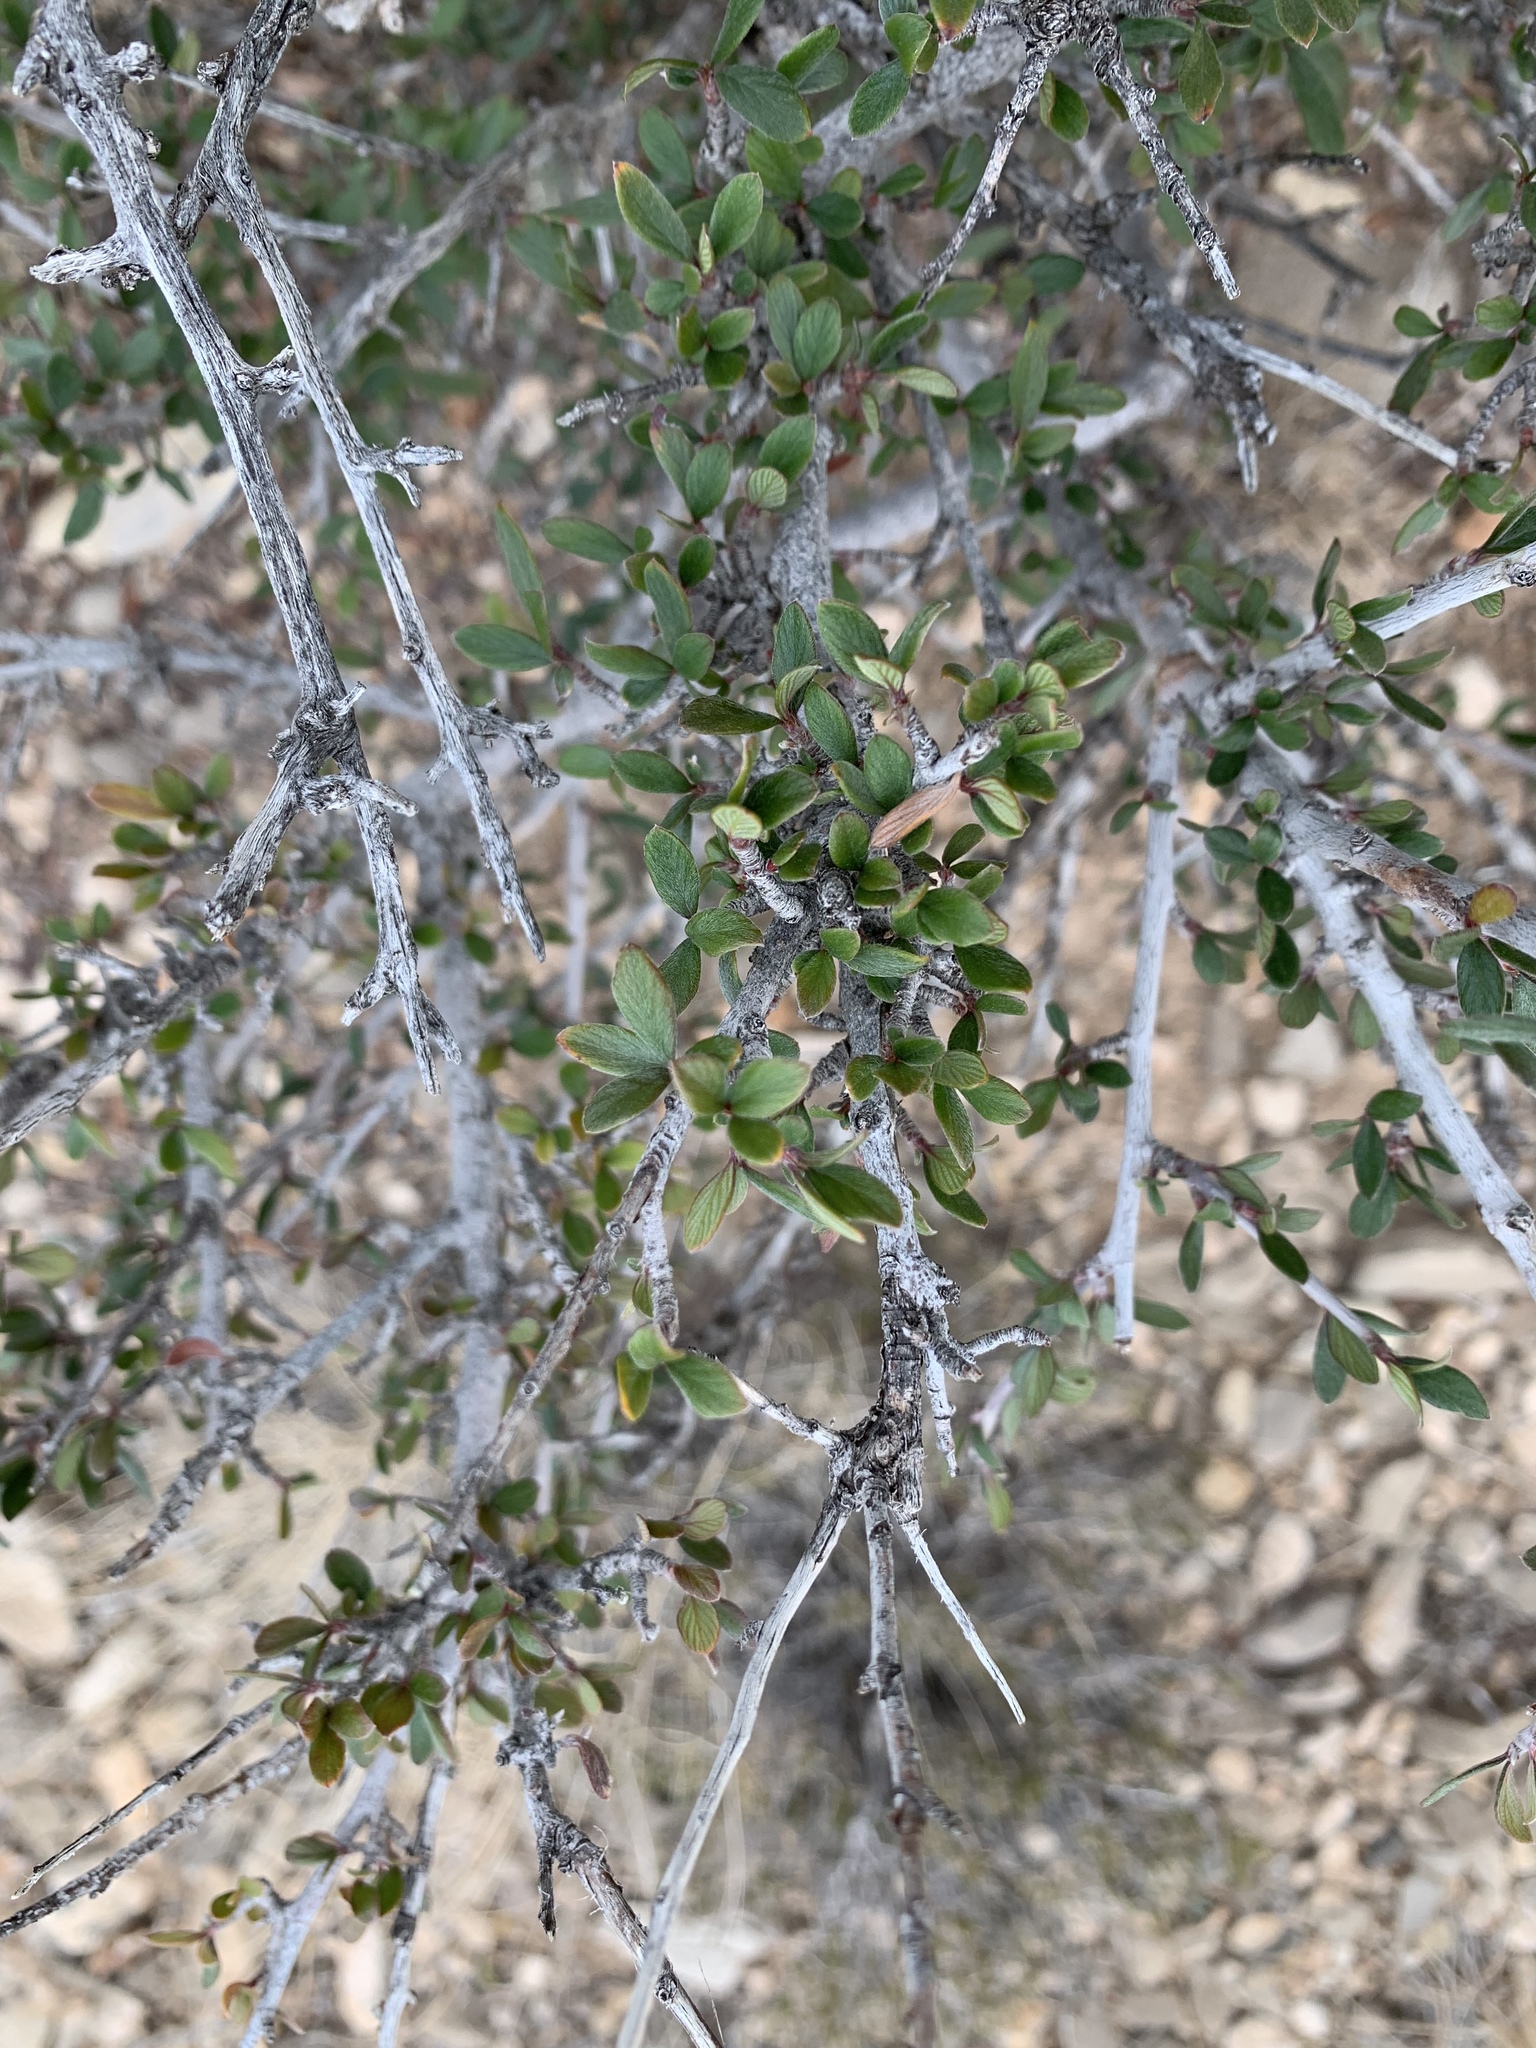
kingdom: Plantae
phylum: Tracheophyta
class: Magnoliopsida
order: Rosales
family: Rosaceae
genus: Cercocarpus
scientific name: Cercocarpus breviflorus
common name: Wright's mountain-mahogany
